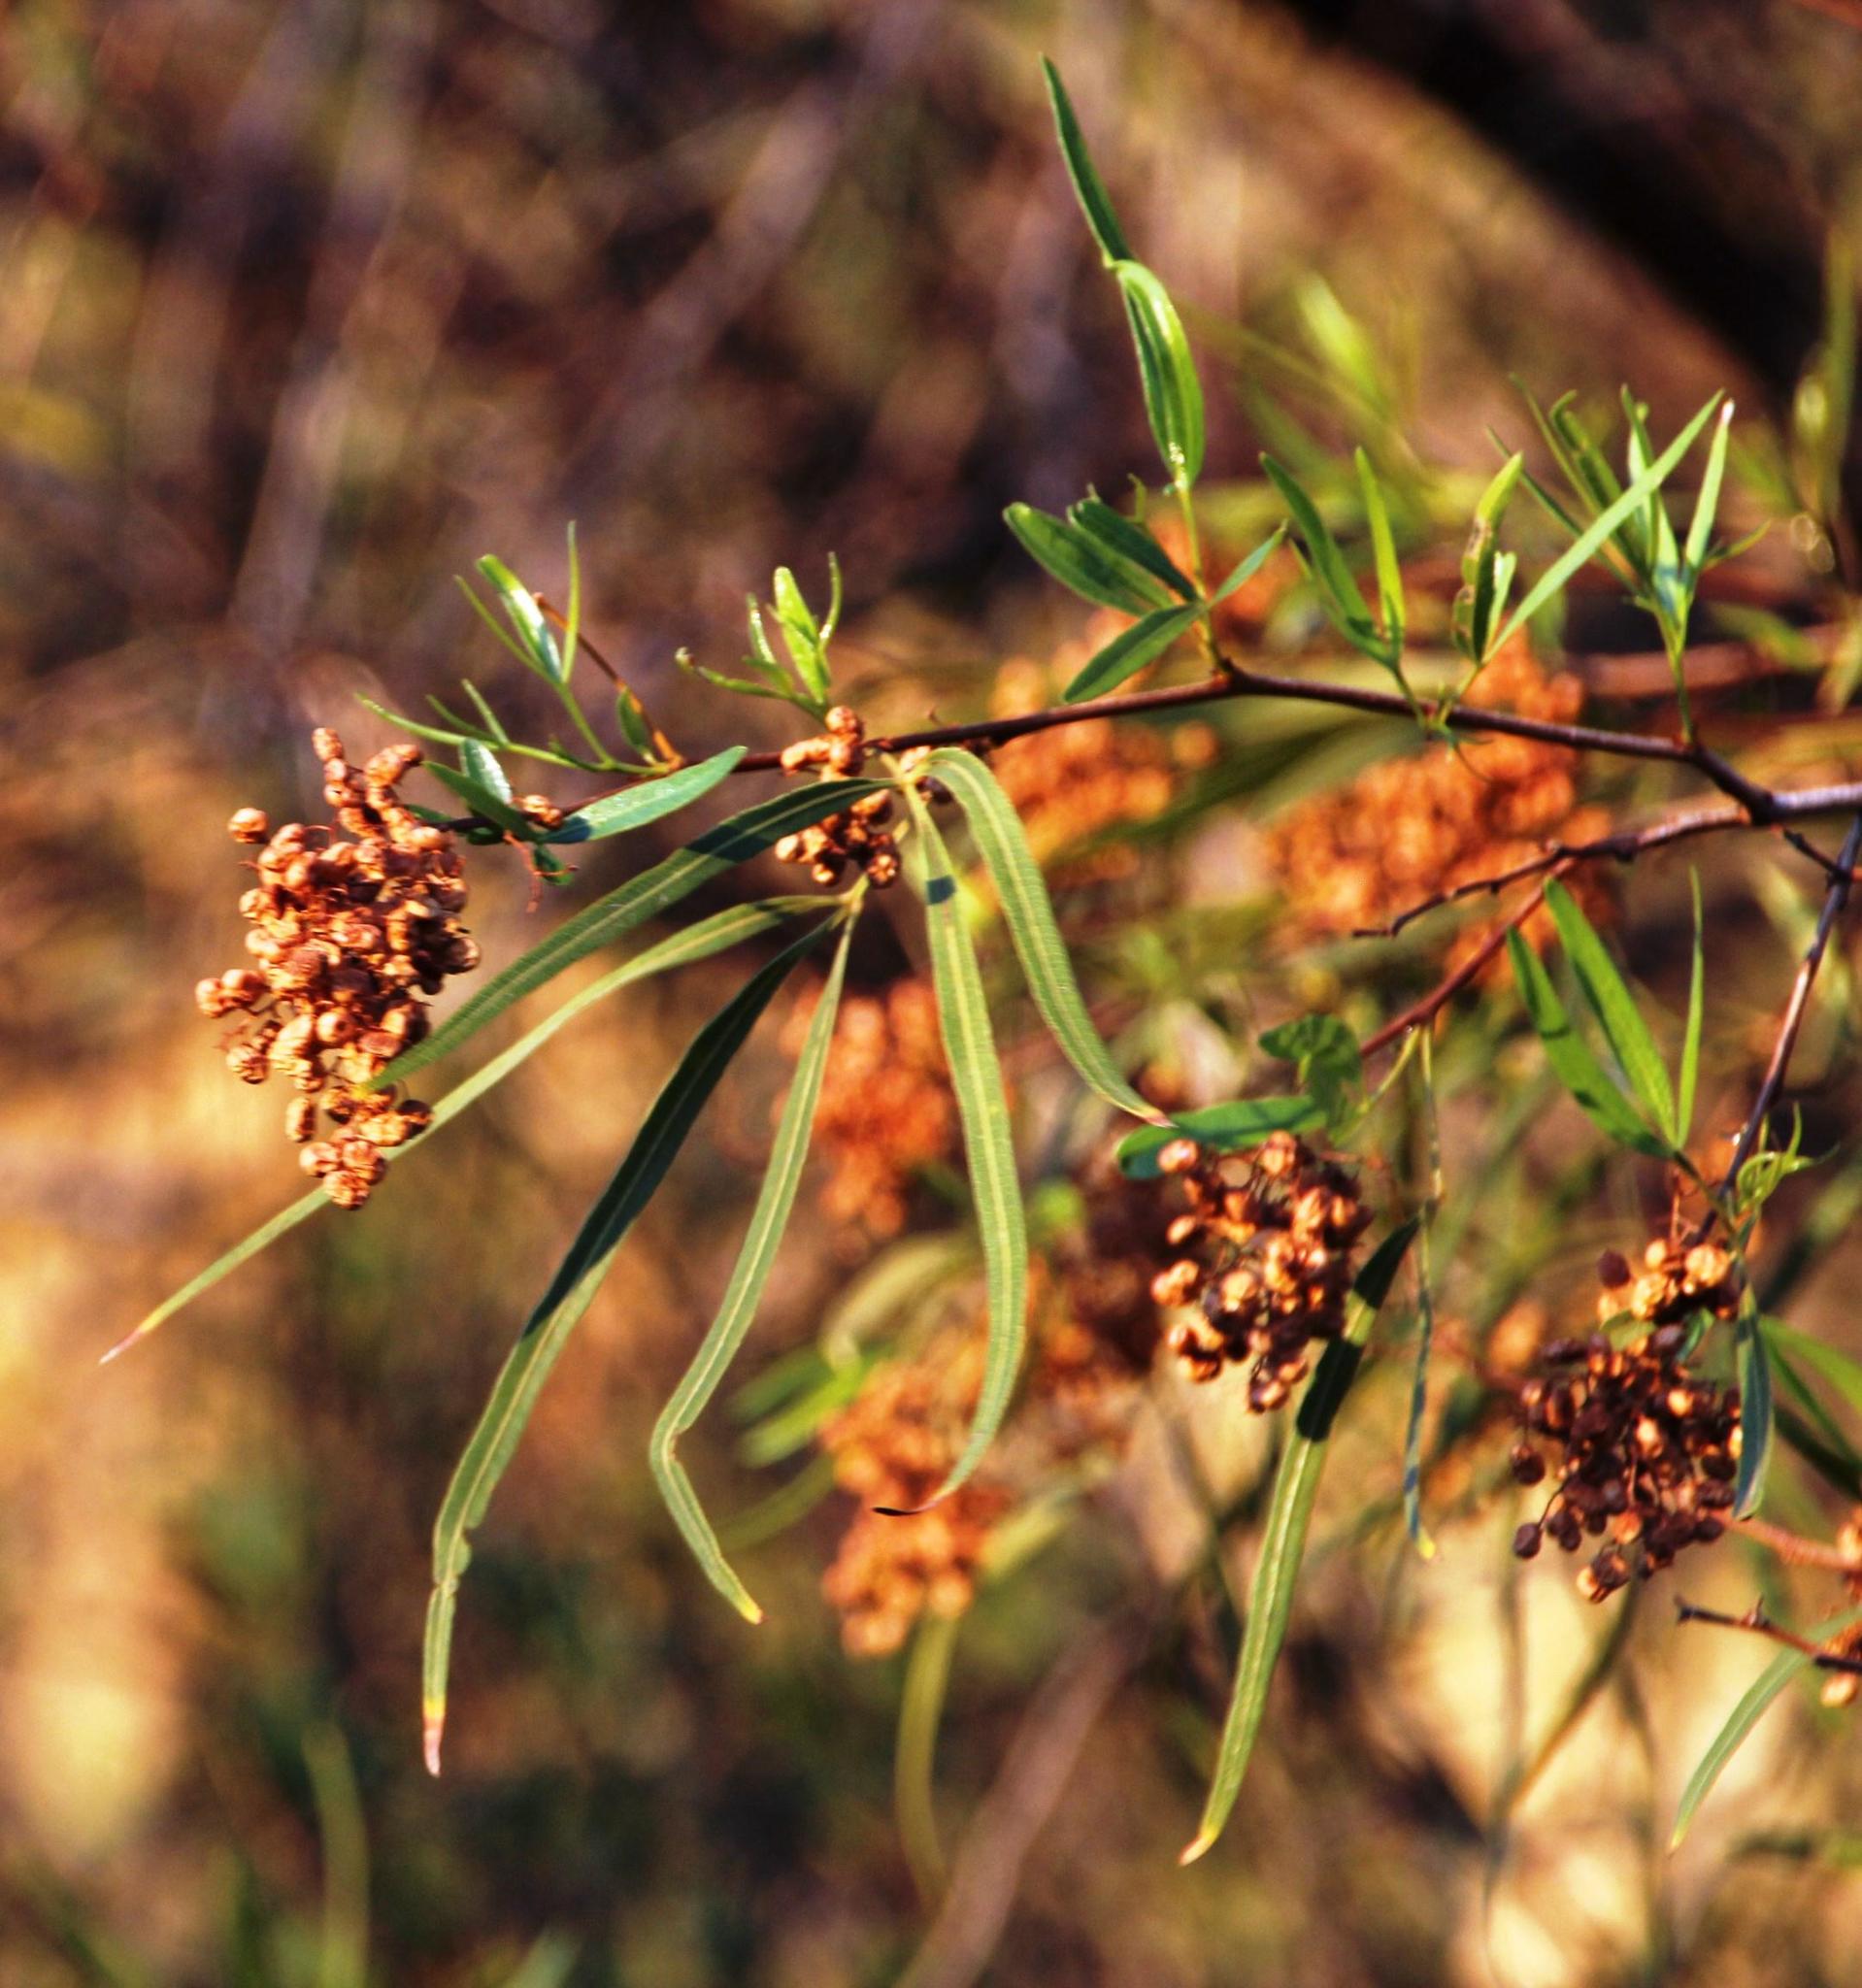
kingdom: Plantae
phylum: Tracheophyta
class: Magnoliopsida
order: Sapindales
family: Anacardiaceae
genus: Searsia
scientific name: Searsia lancea
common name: Cashew
